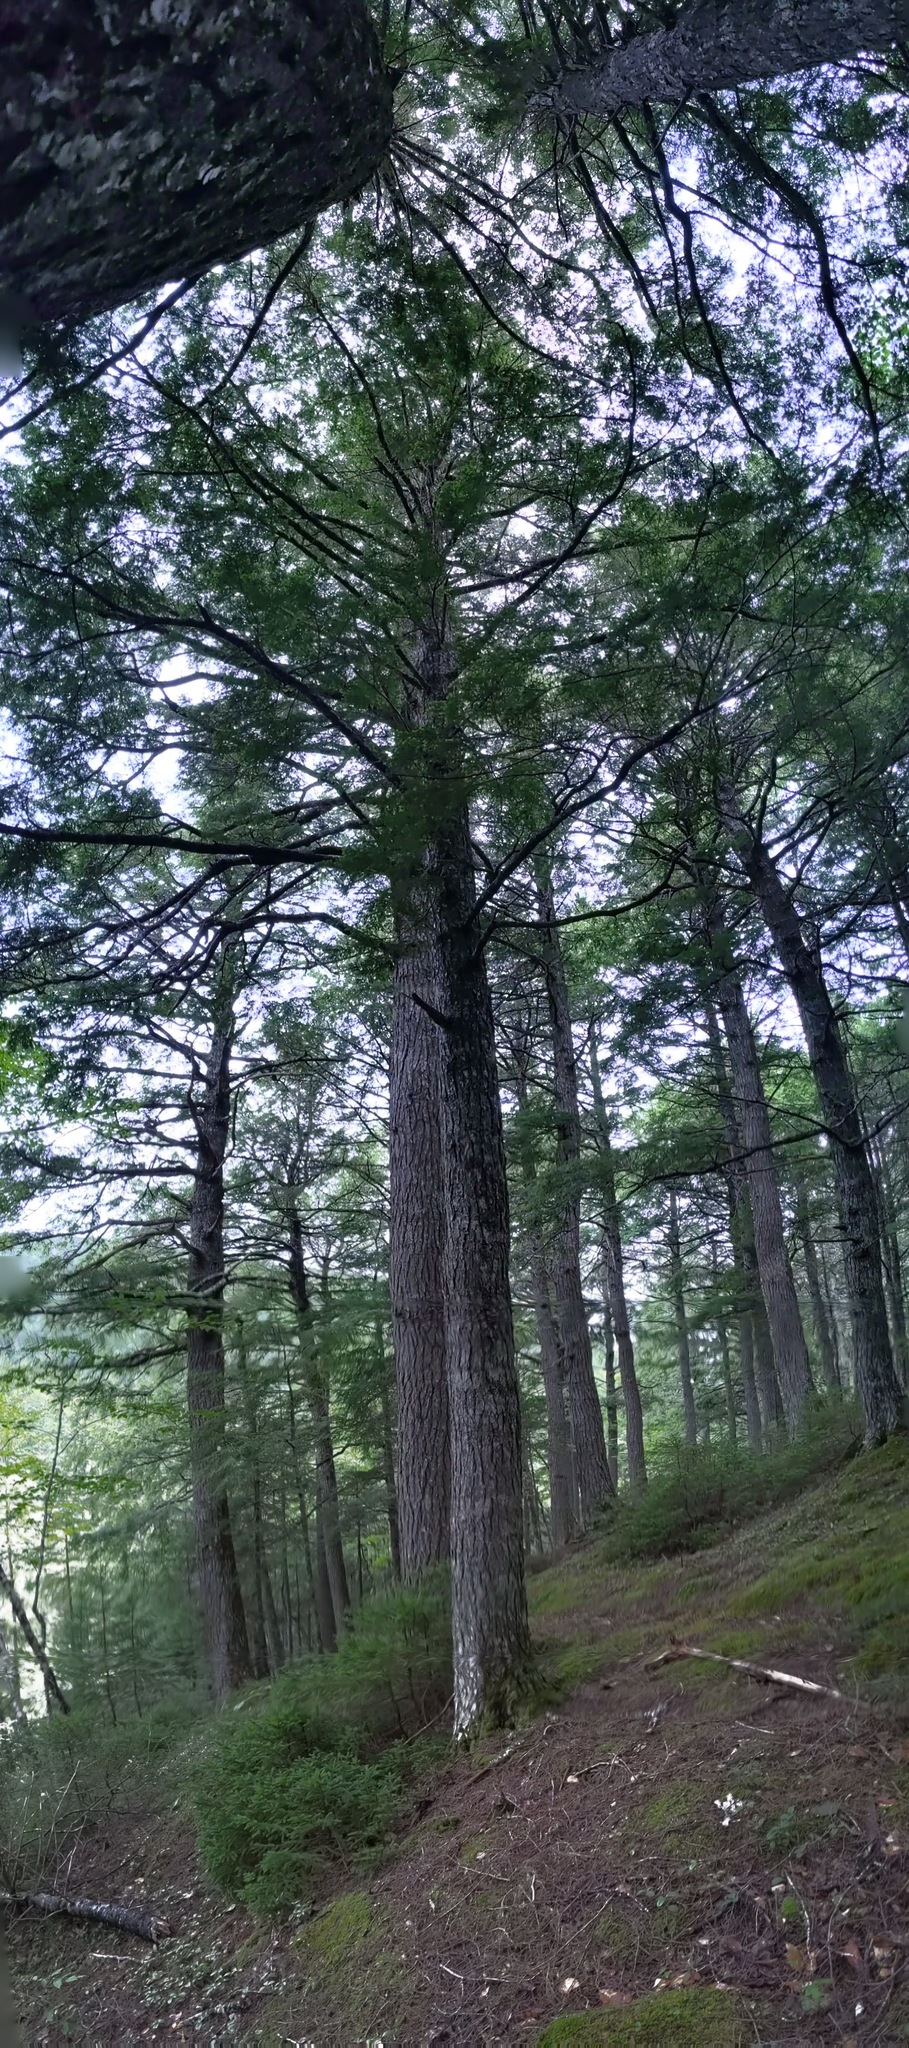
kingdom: Plantae
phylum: Tracheophyta
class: Pinopsida
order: Pinales
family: Pinaceae
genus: Tsuga
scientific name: Tsuga canadensis
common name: Eastern hemlock
